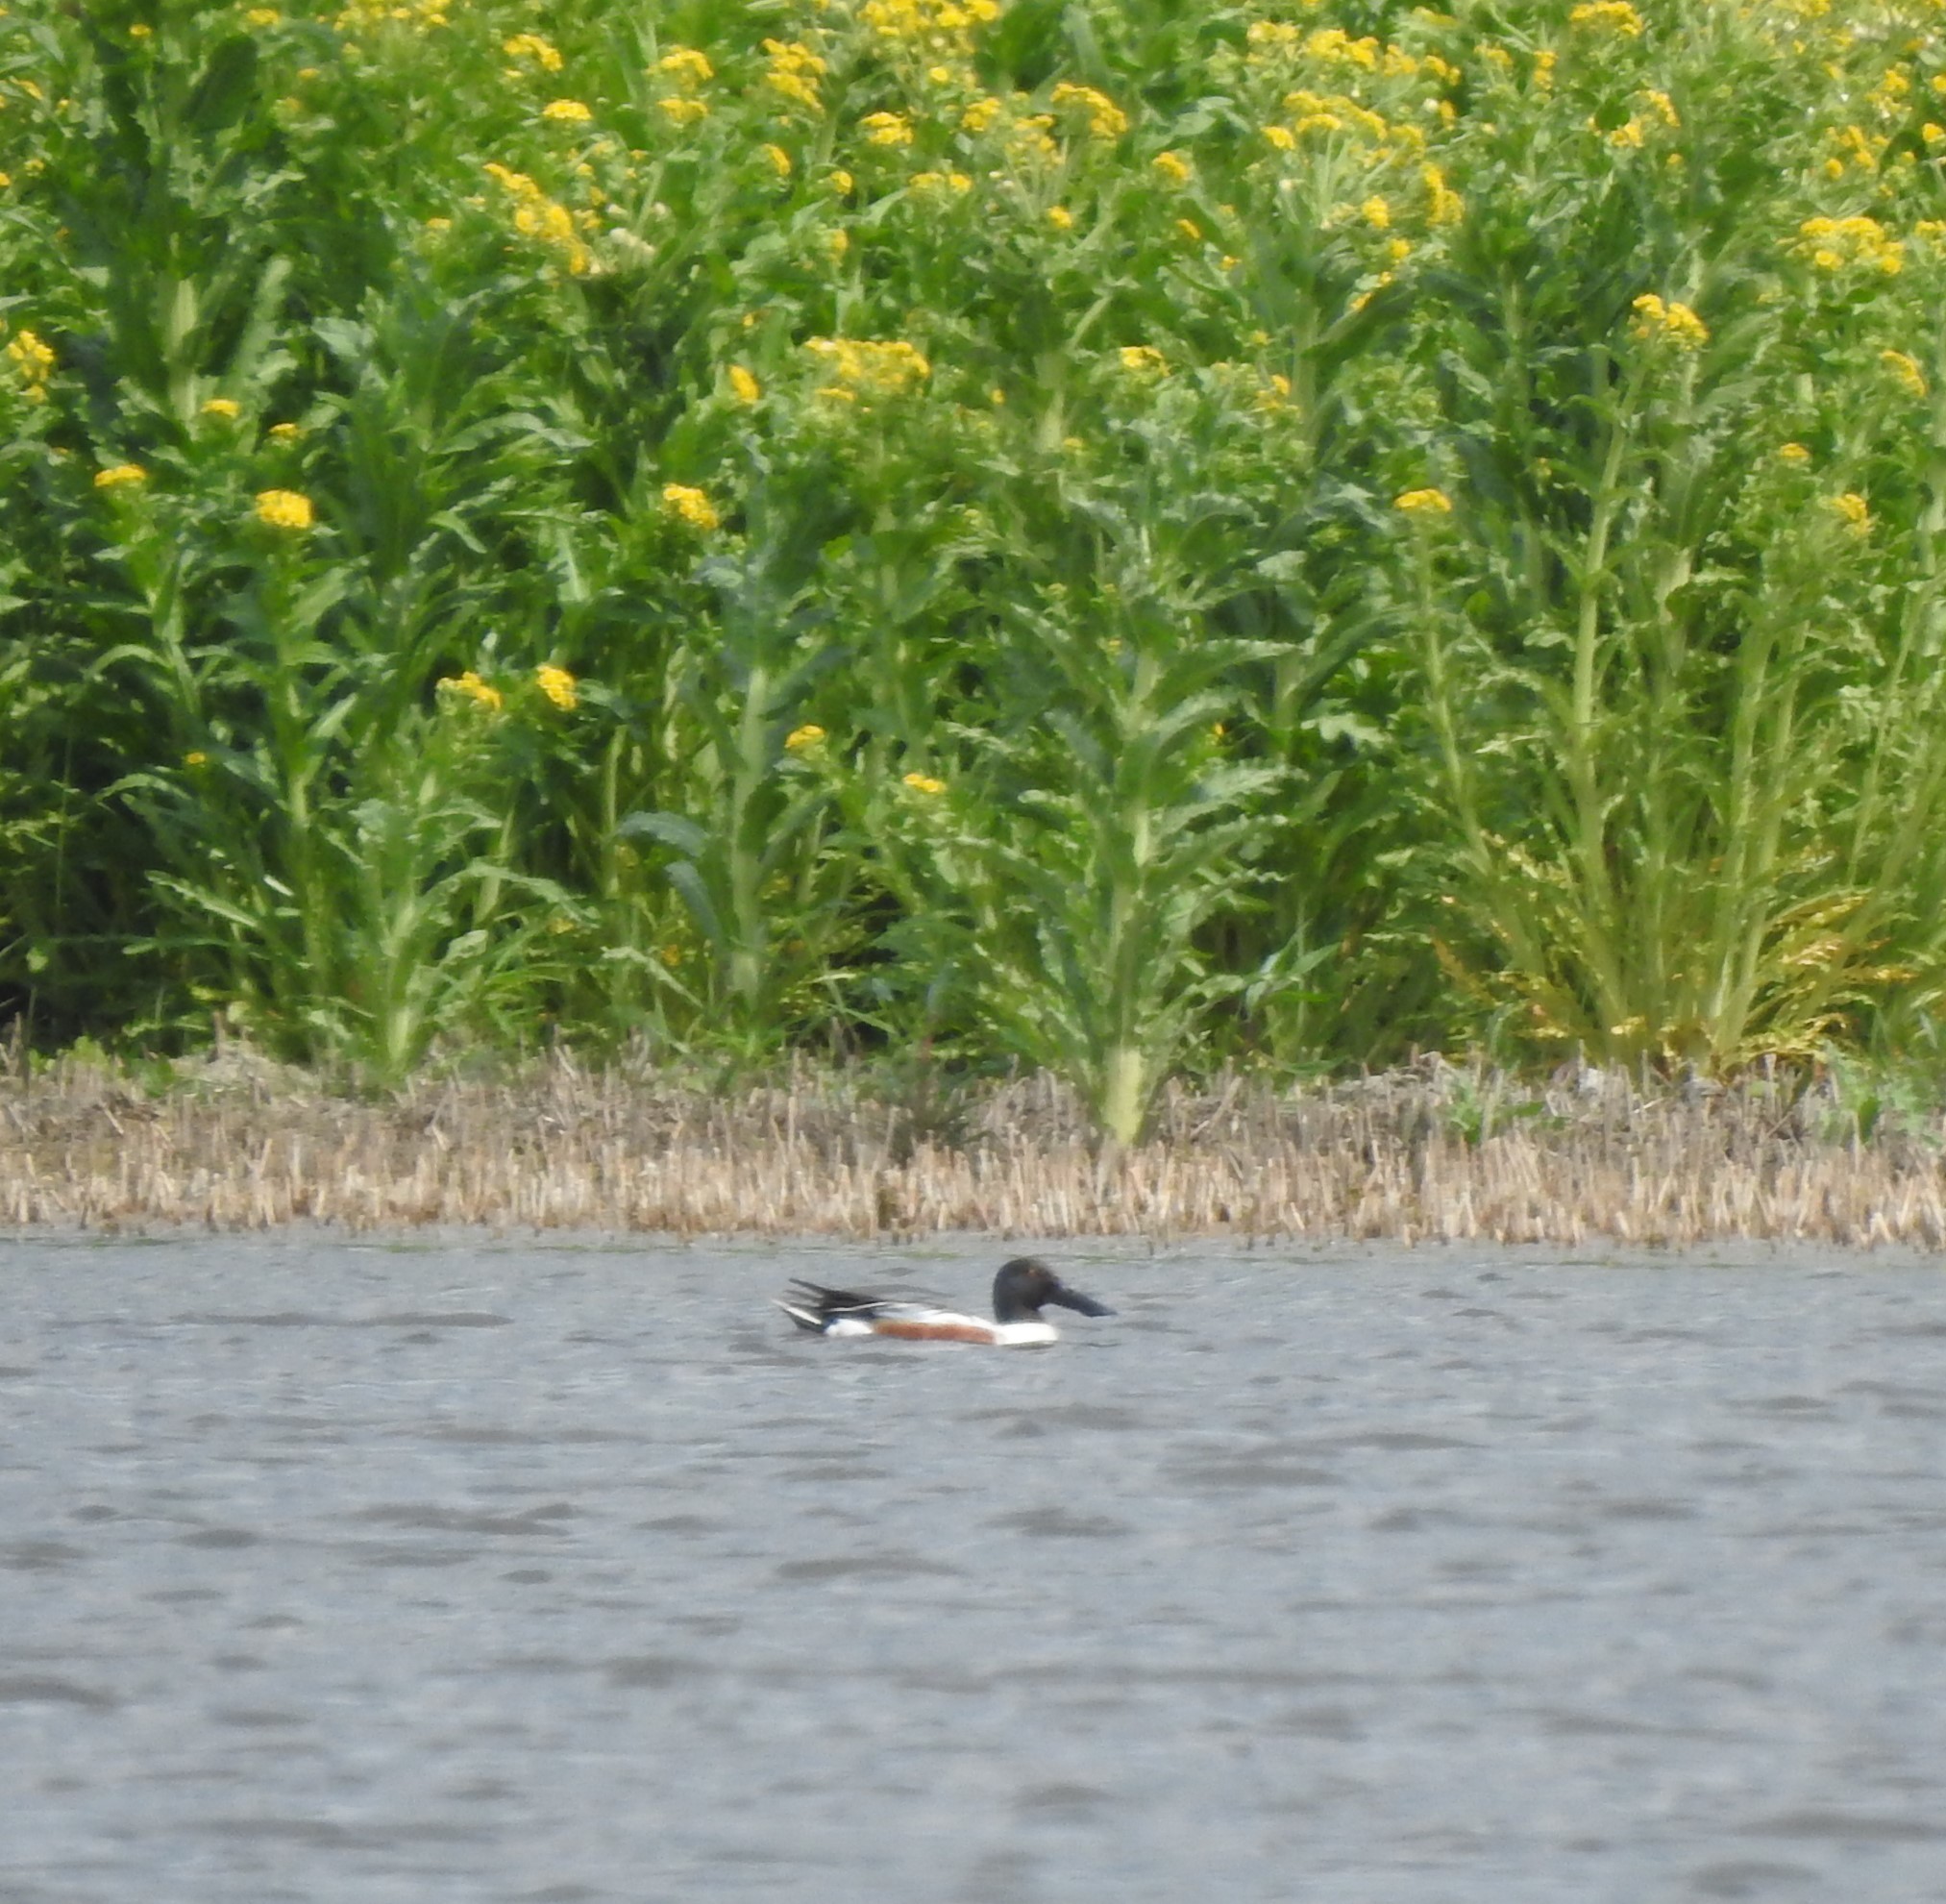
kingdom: Animalia
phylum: Chordata
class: Aves
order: Anseriformes
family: Anatidae
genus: Spatula
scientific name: Spatula clypeata
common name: Northern shoveler
